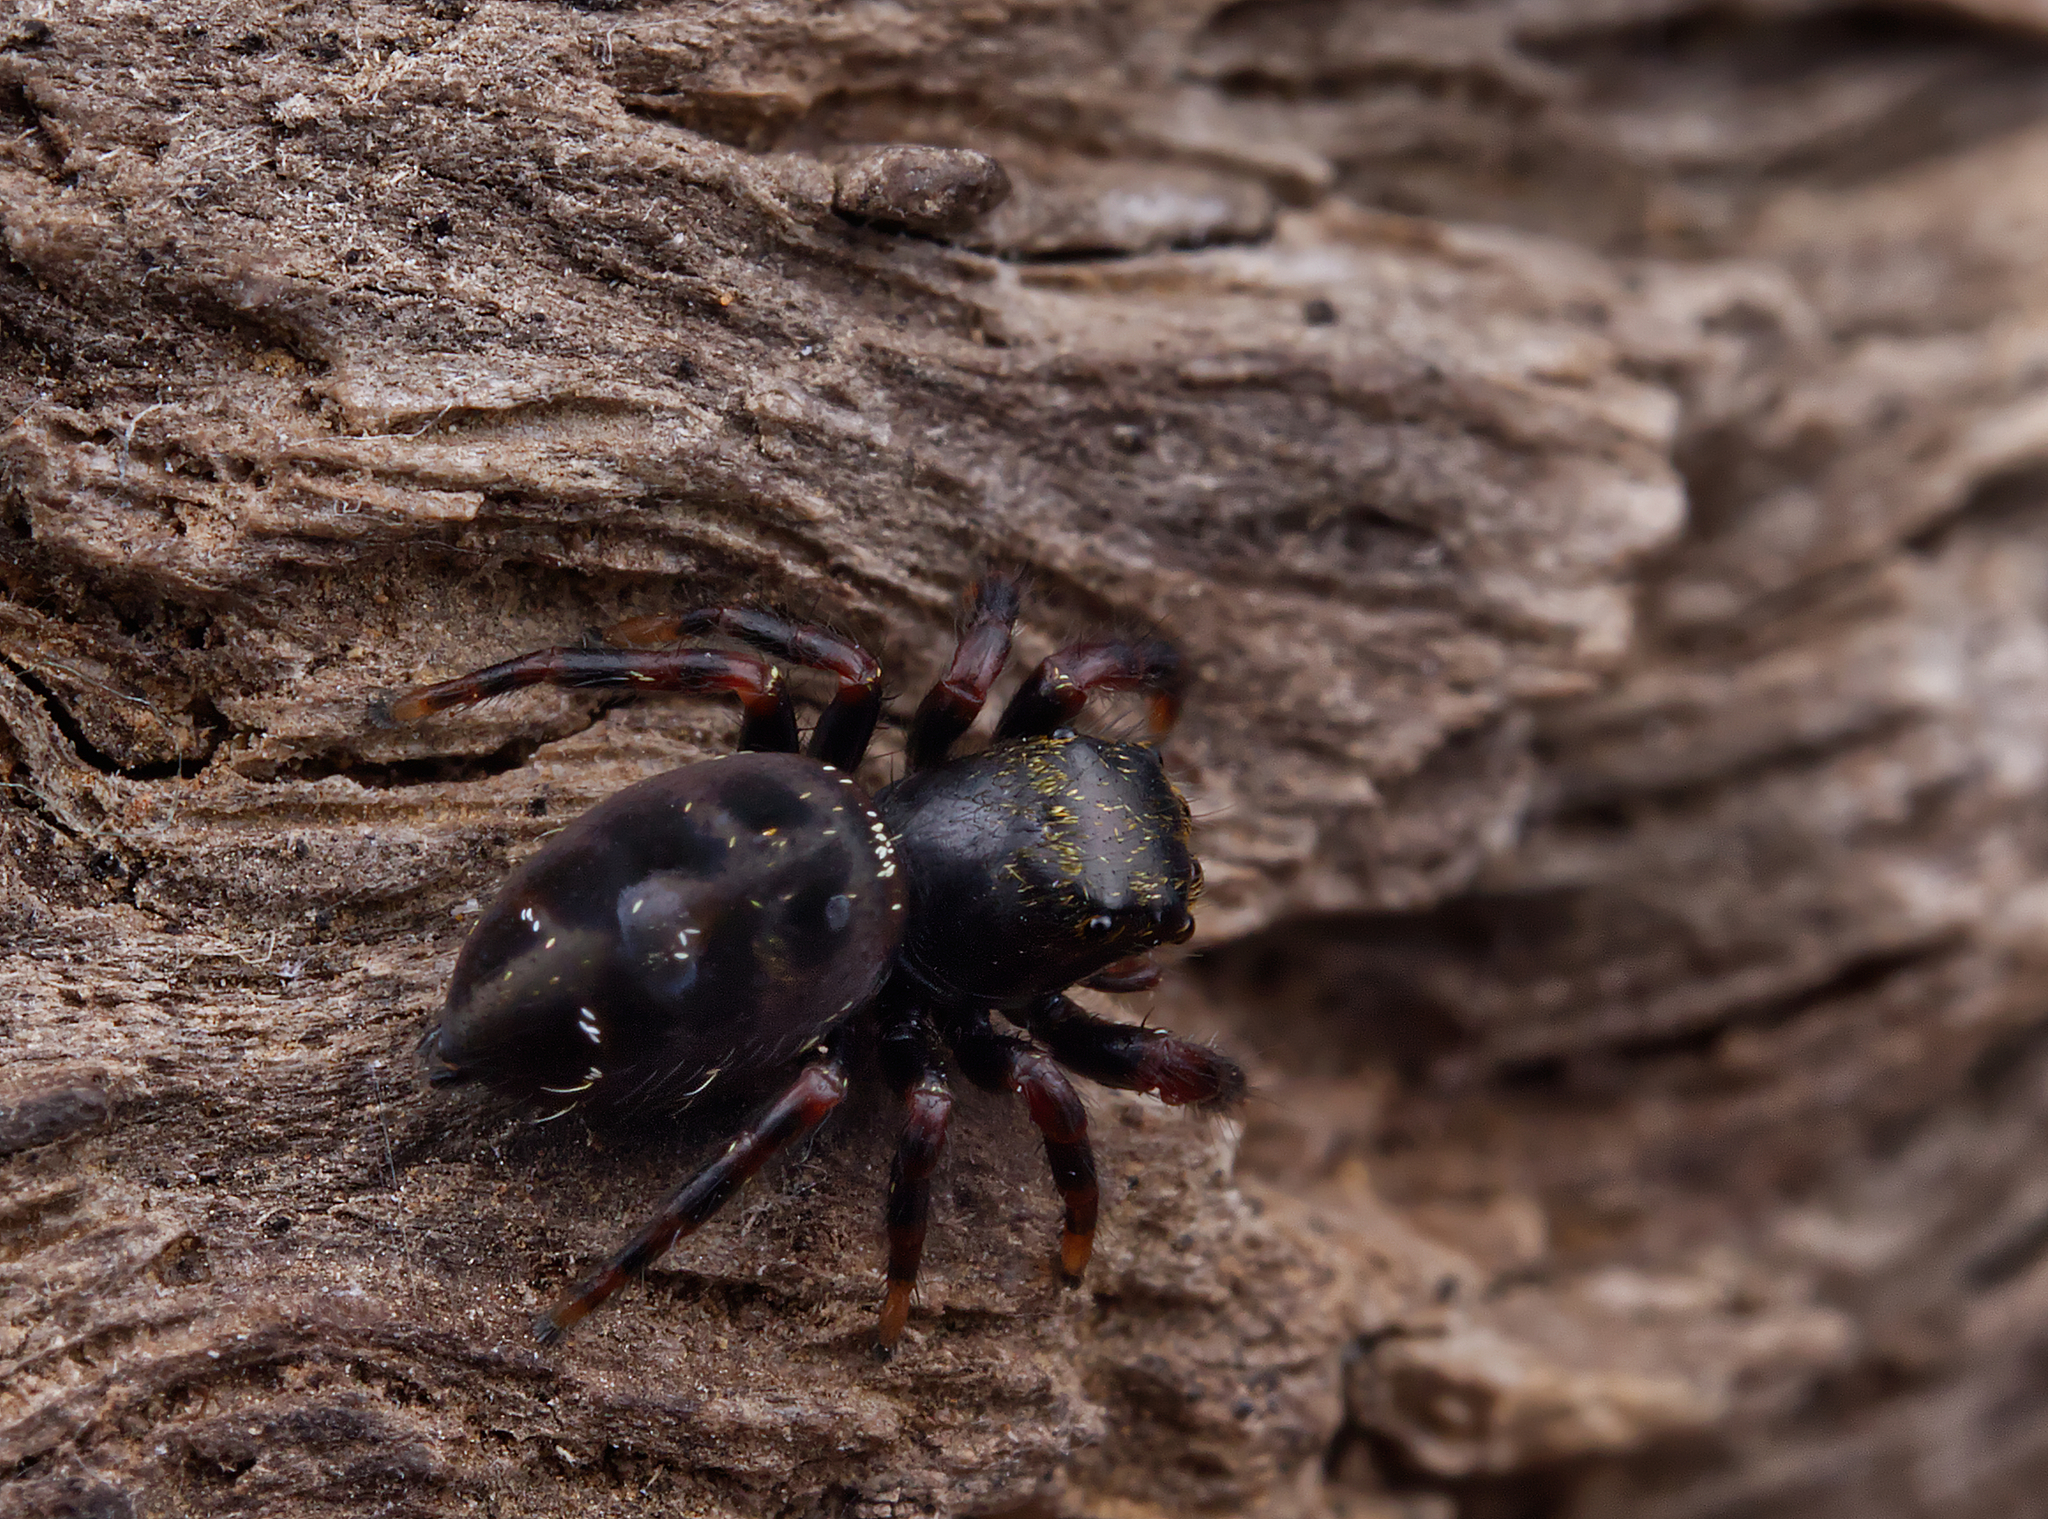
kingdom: Animalia
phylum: Arthropoda
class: Arachnida
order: Araneae
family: Salticidae
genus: Phidippus
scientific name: Phidippus audax
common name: Bold jumper
